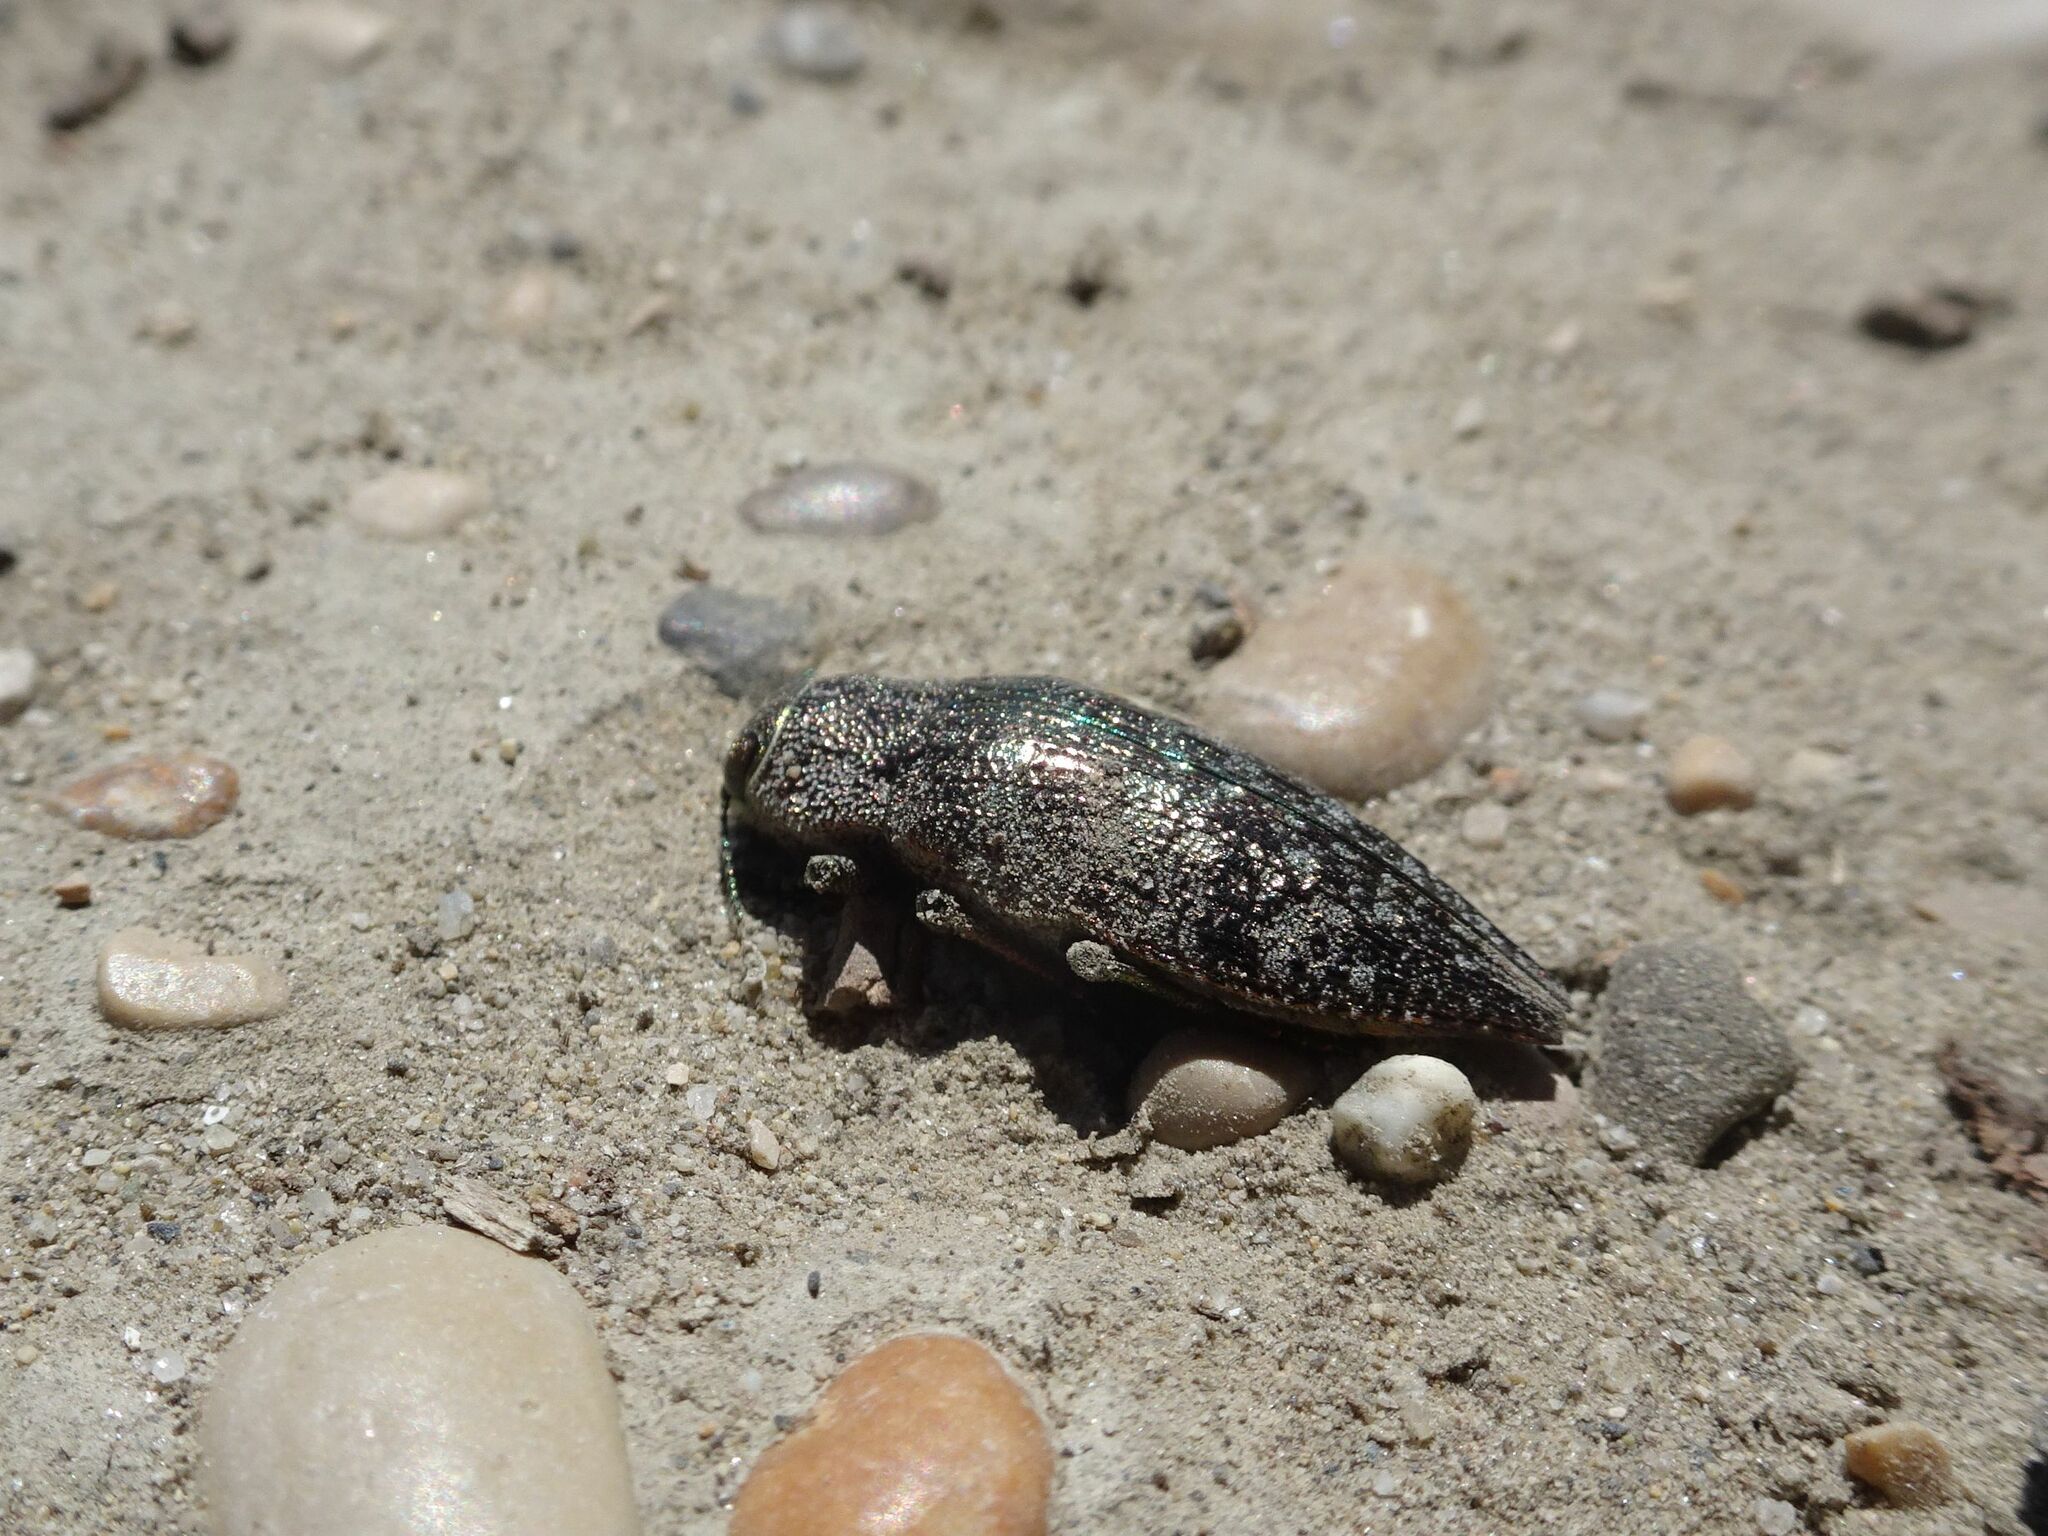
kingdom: Animalia
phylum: Arthropoda
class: Insecta
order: Coleoptera
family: Buprestidae
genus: Dicerca
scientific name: Dicerca aenea
